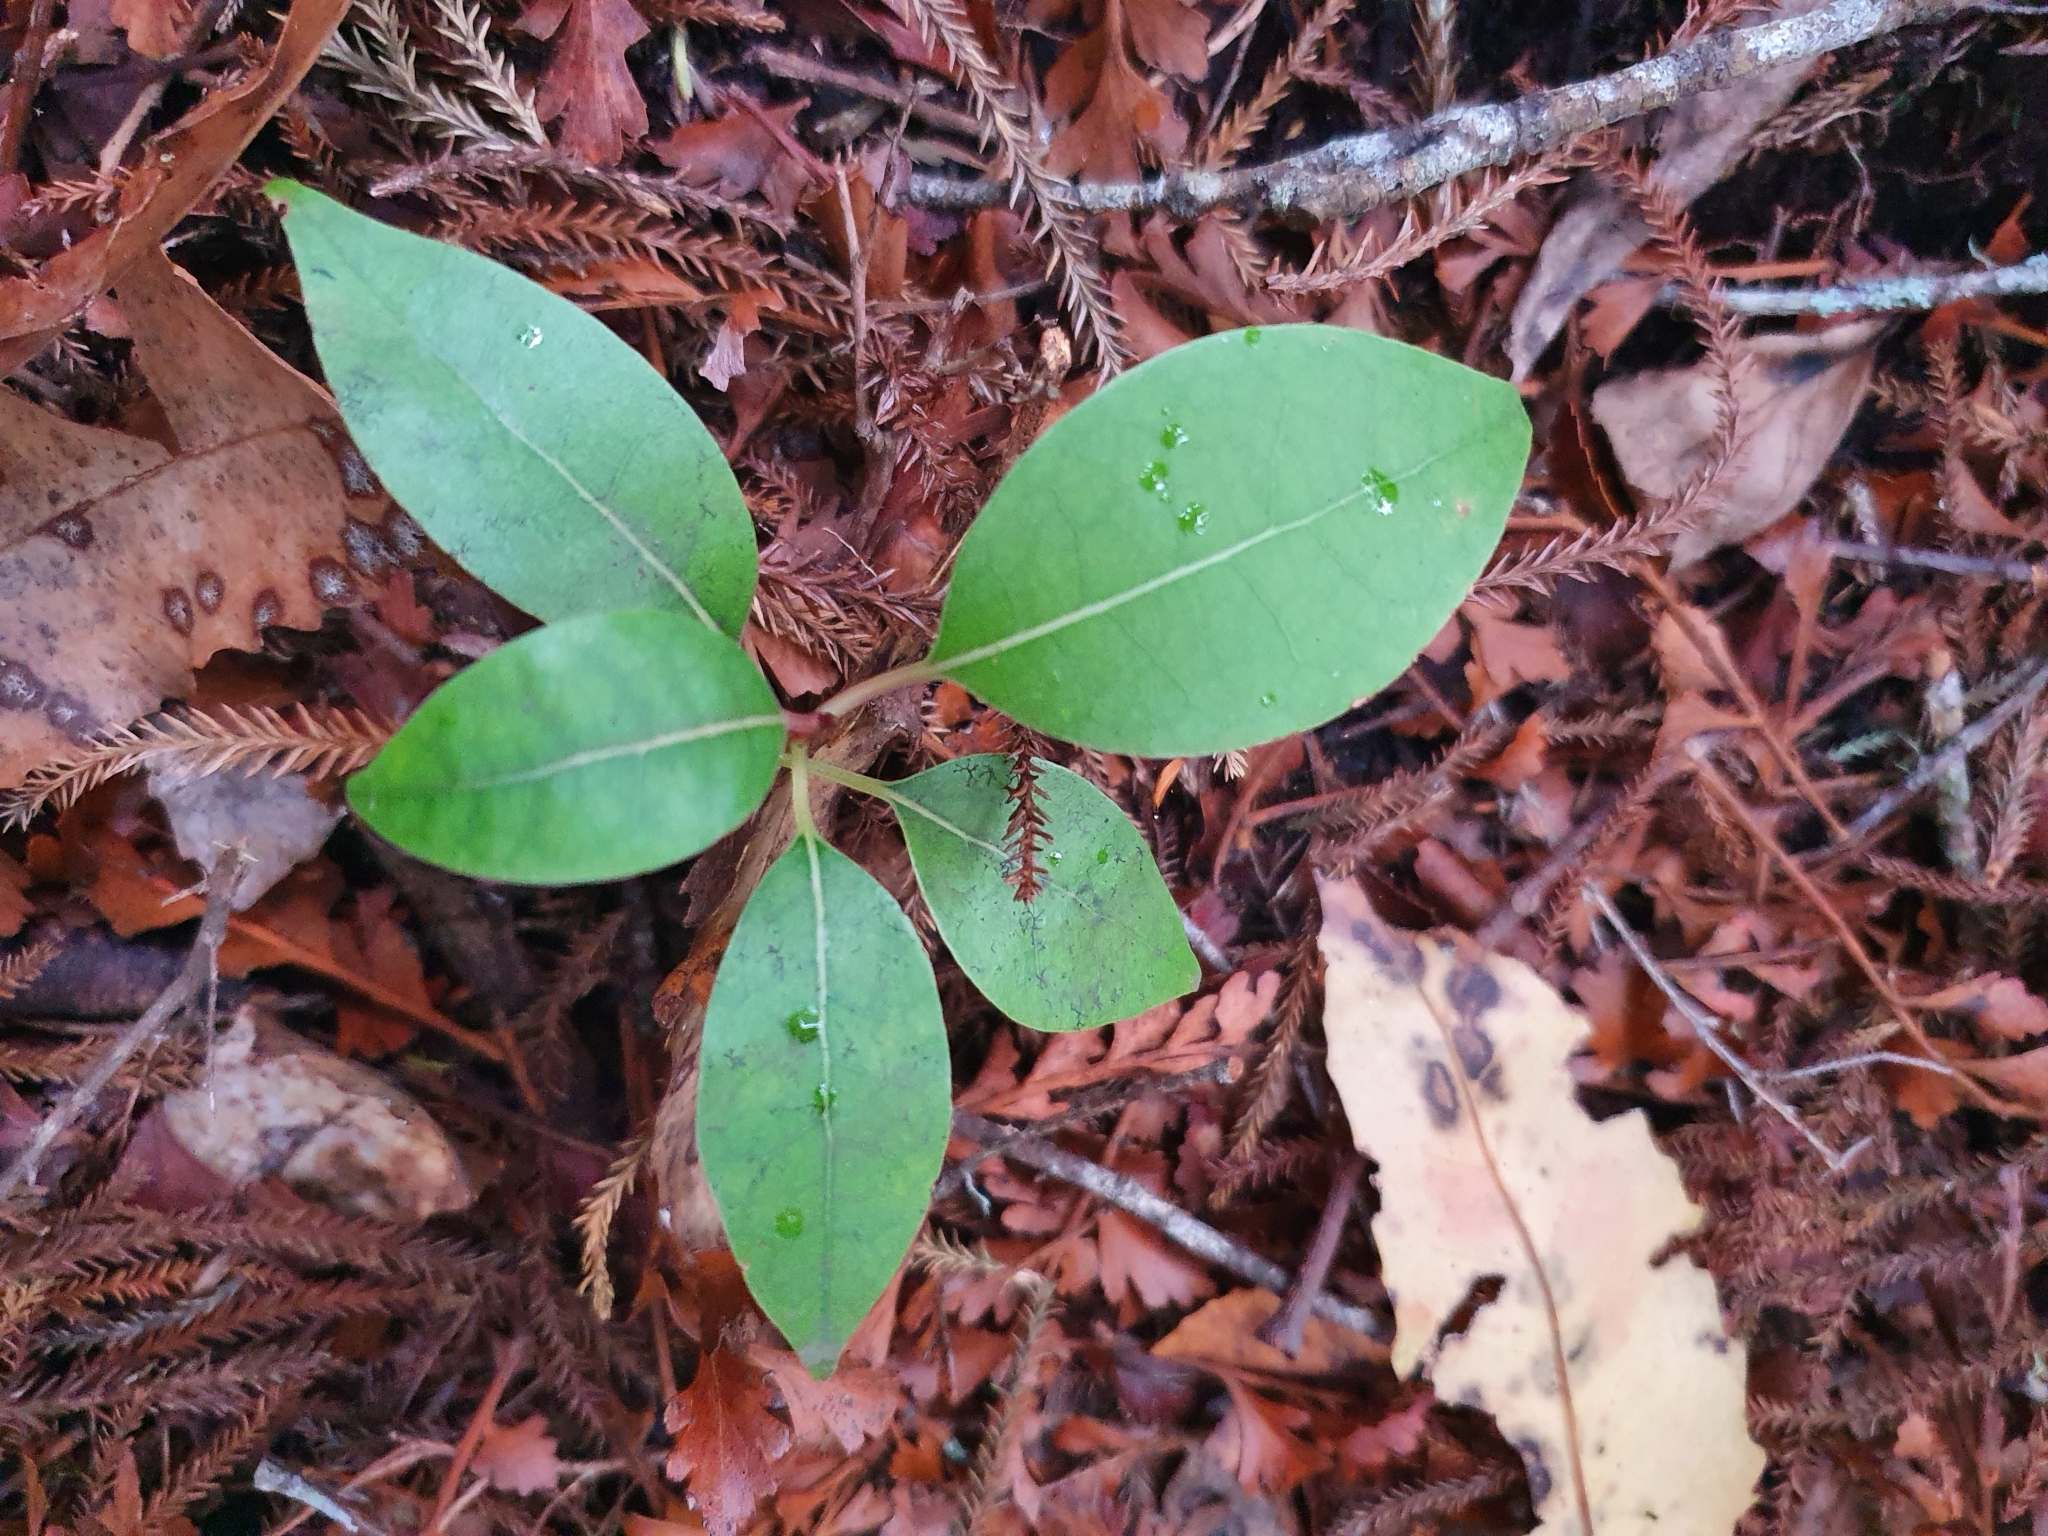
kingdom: Plantae
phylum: Tracheophyta
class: Magnoliopsida
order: Laurales
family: Lauraceae
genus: Litsea
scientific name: Litsea calicaris
